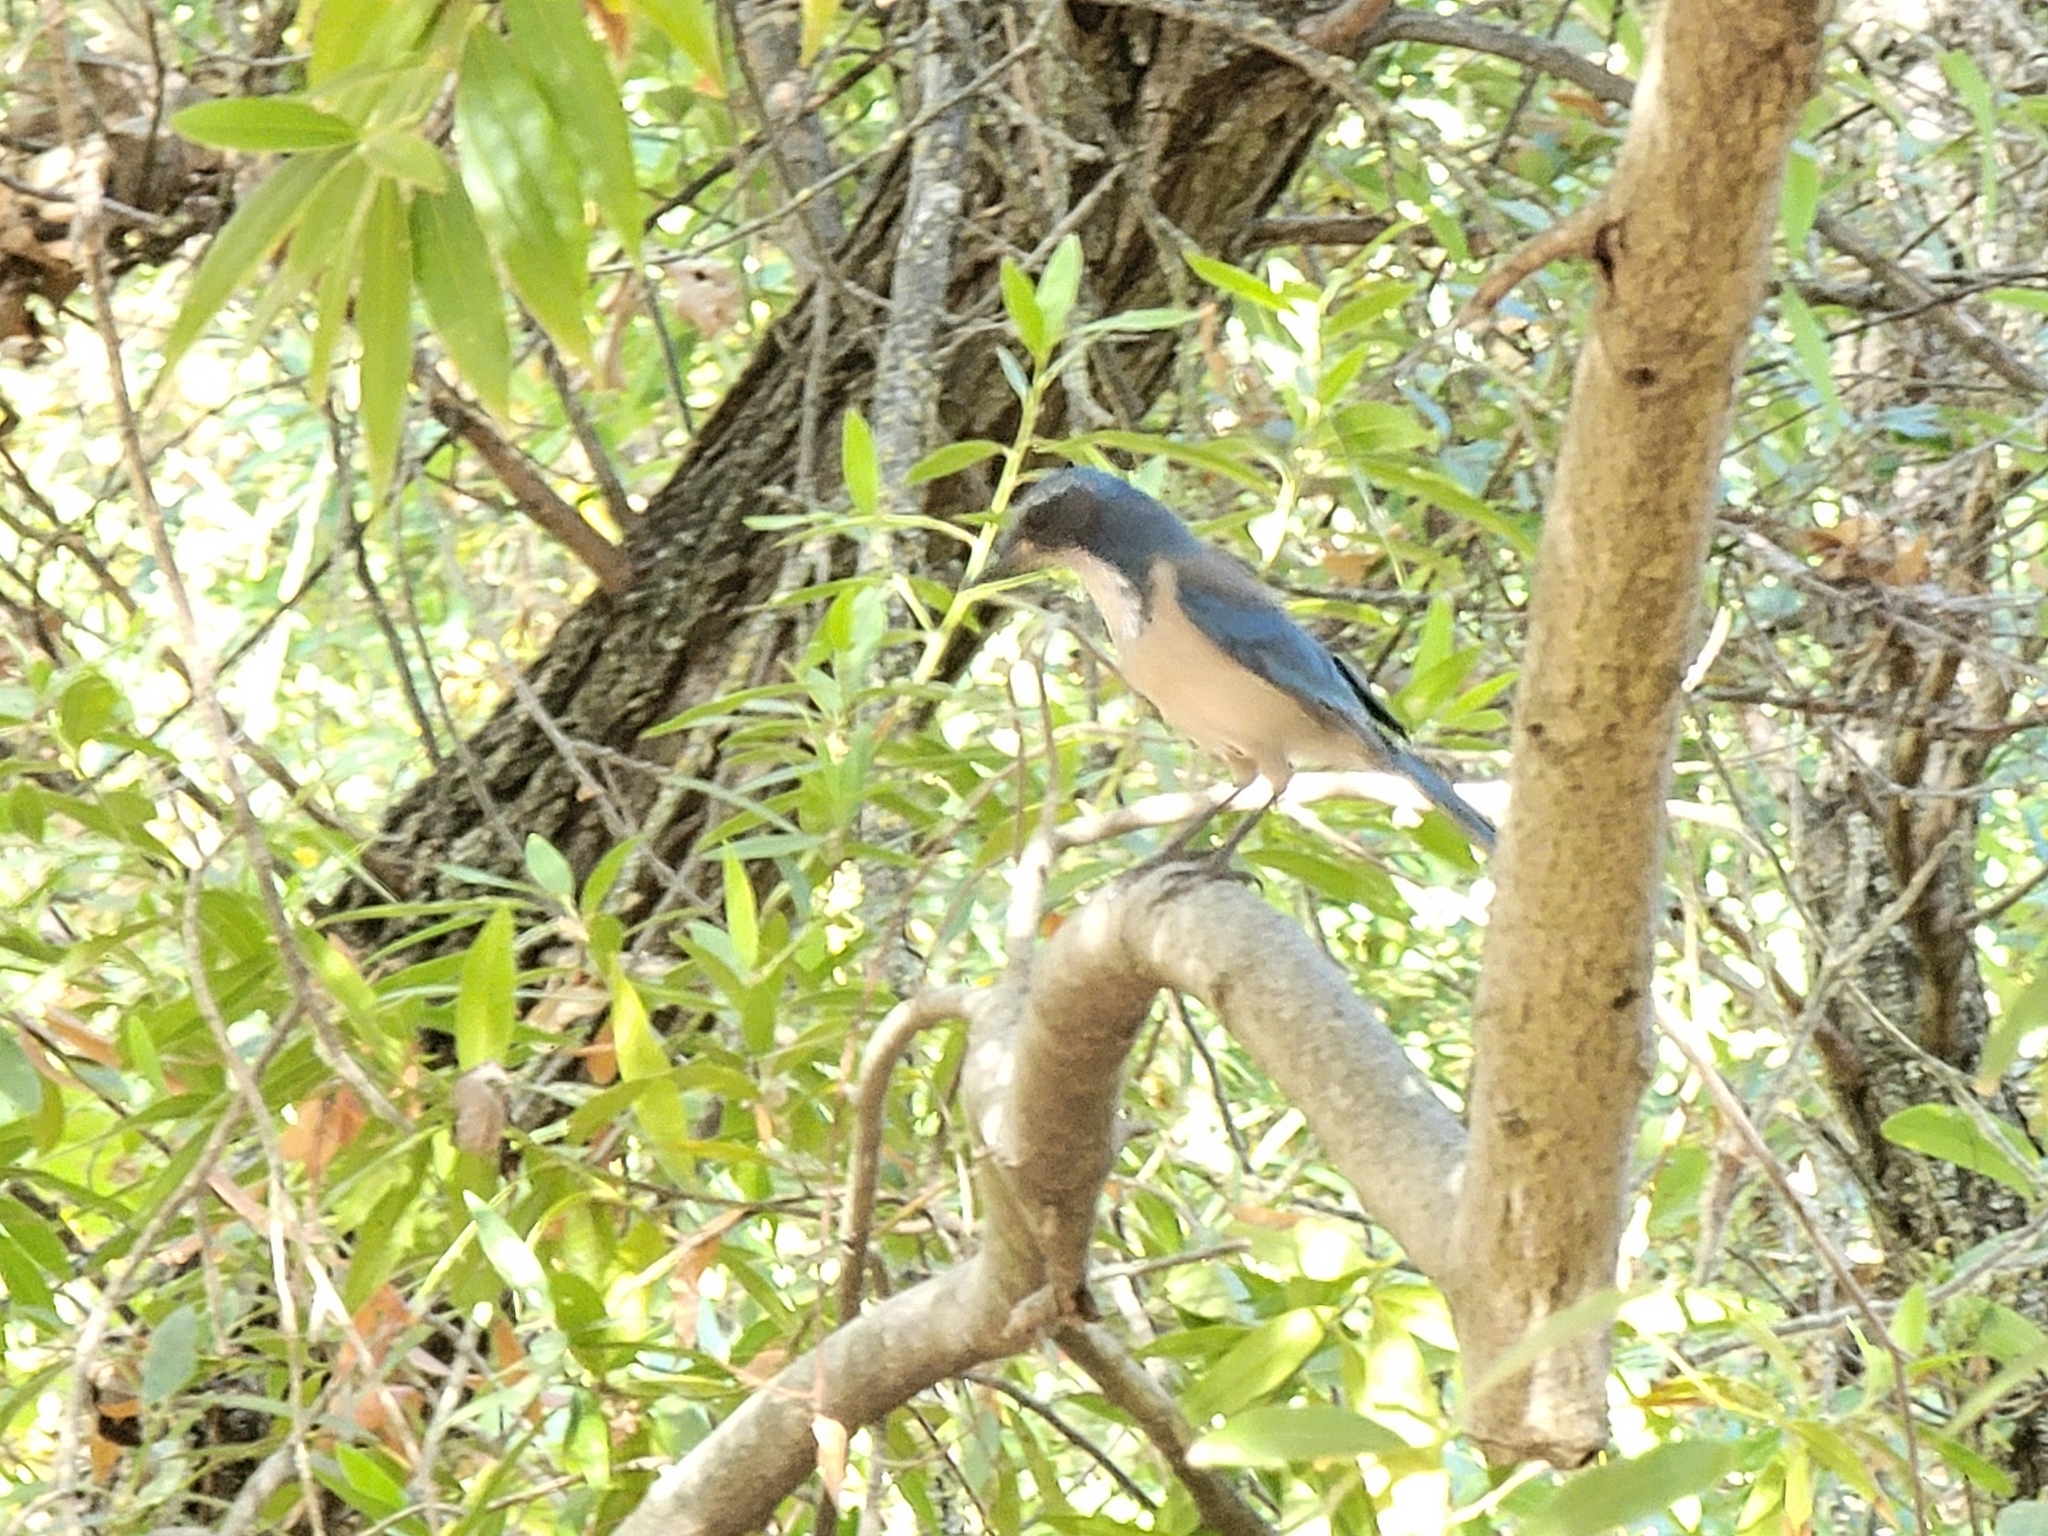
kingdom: Animalia
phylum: Chordata
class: Aves
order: Passeriformes
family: Corvidae
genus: Aphelocoma
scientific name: Aphelocoma californica
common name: California scrub-jay
